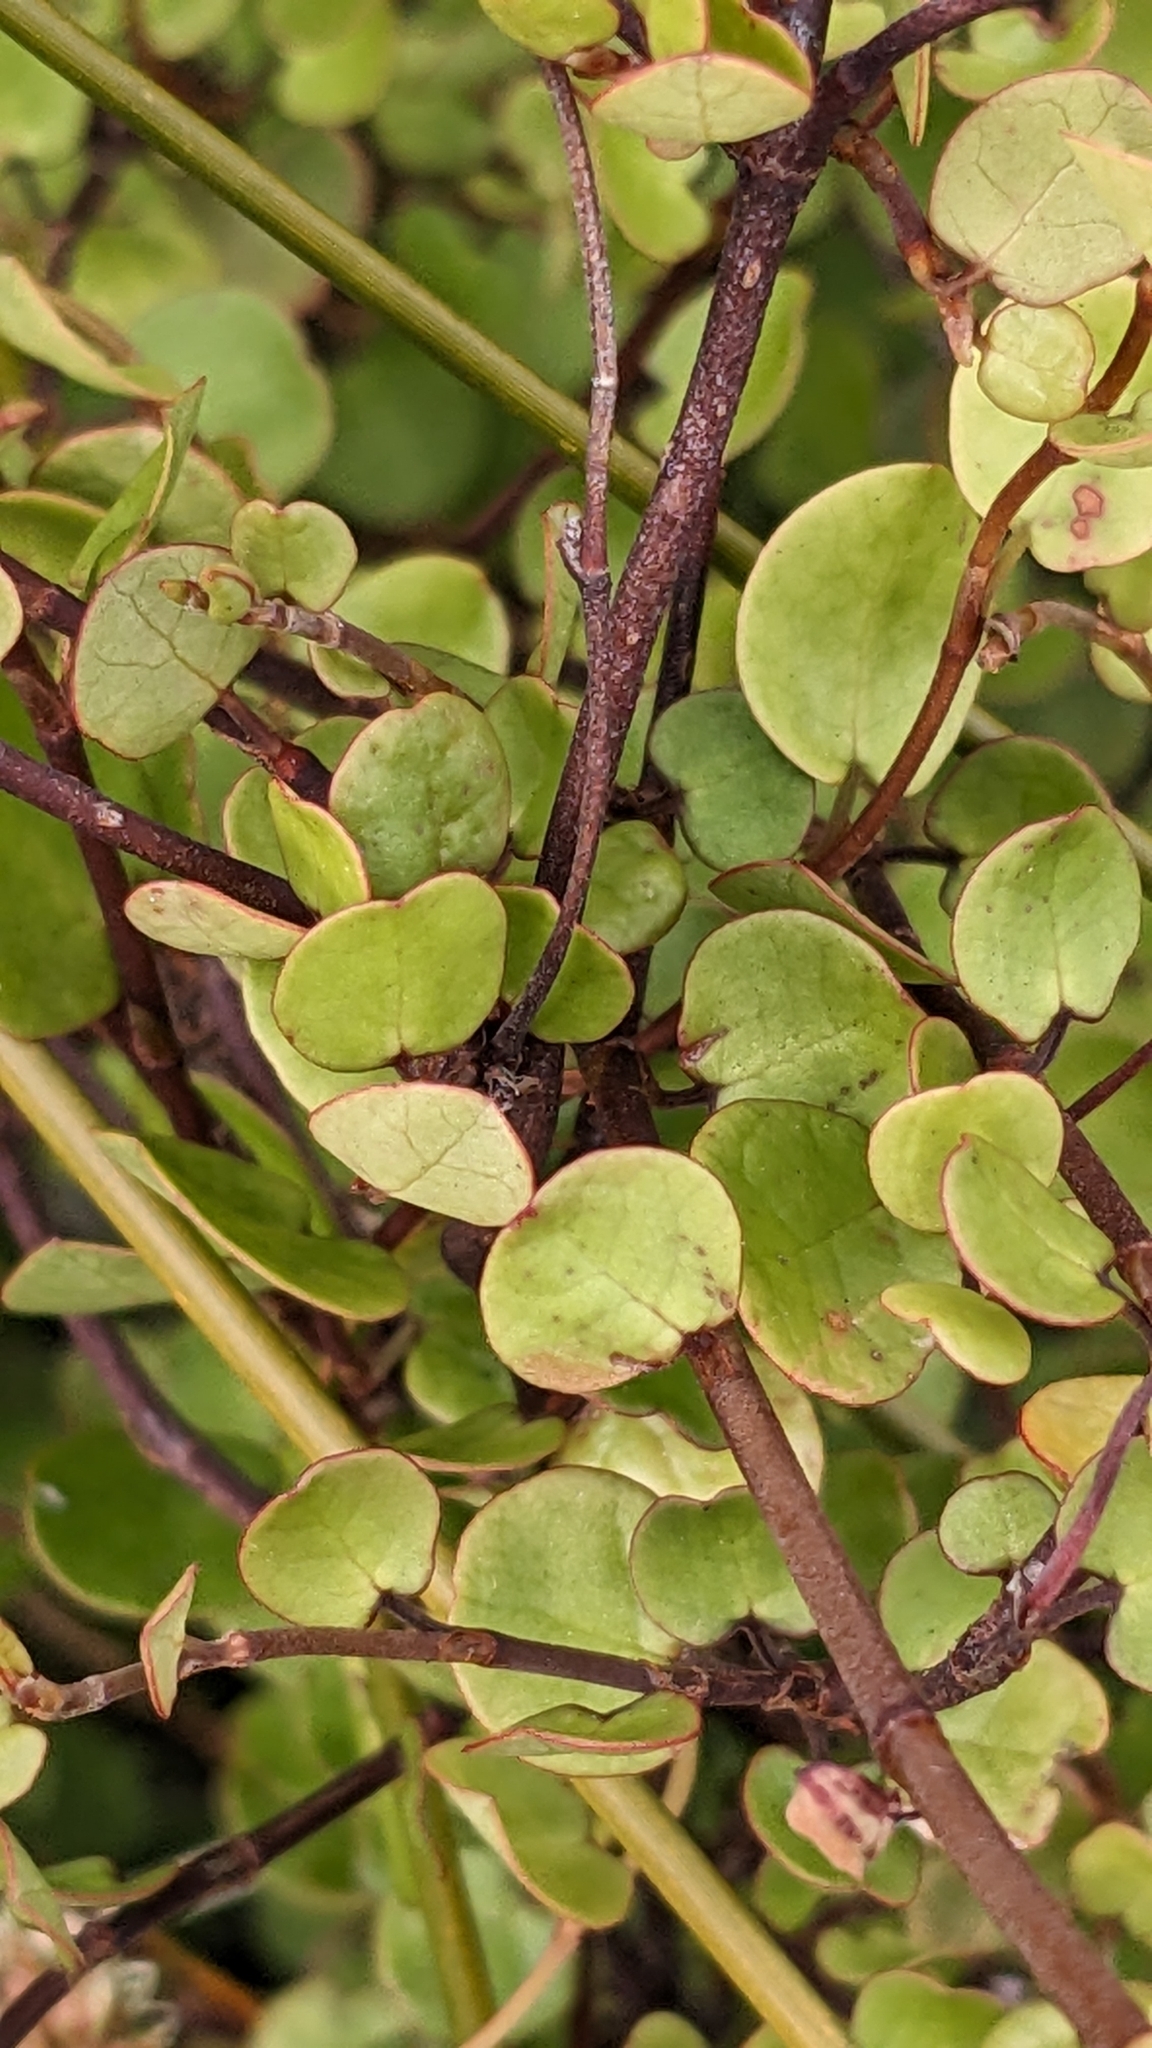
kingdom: Plantae
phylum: Tracheophyta
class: Magnoliopsida
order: Caryophyllales
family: Polygonaceae
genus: Muehlenbeckia
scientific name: Muehlenbeckia complexa
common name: Wireplant
